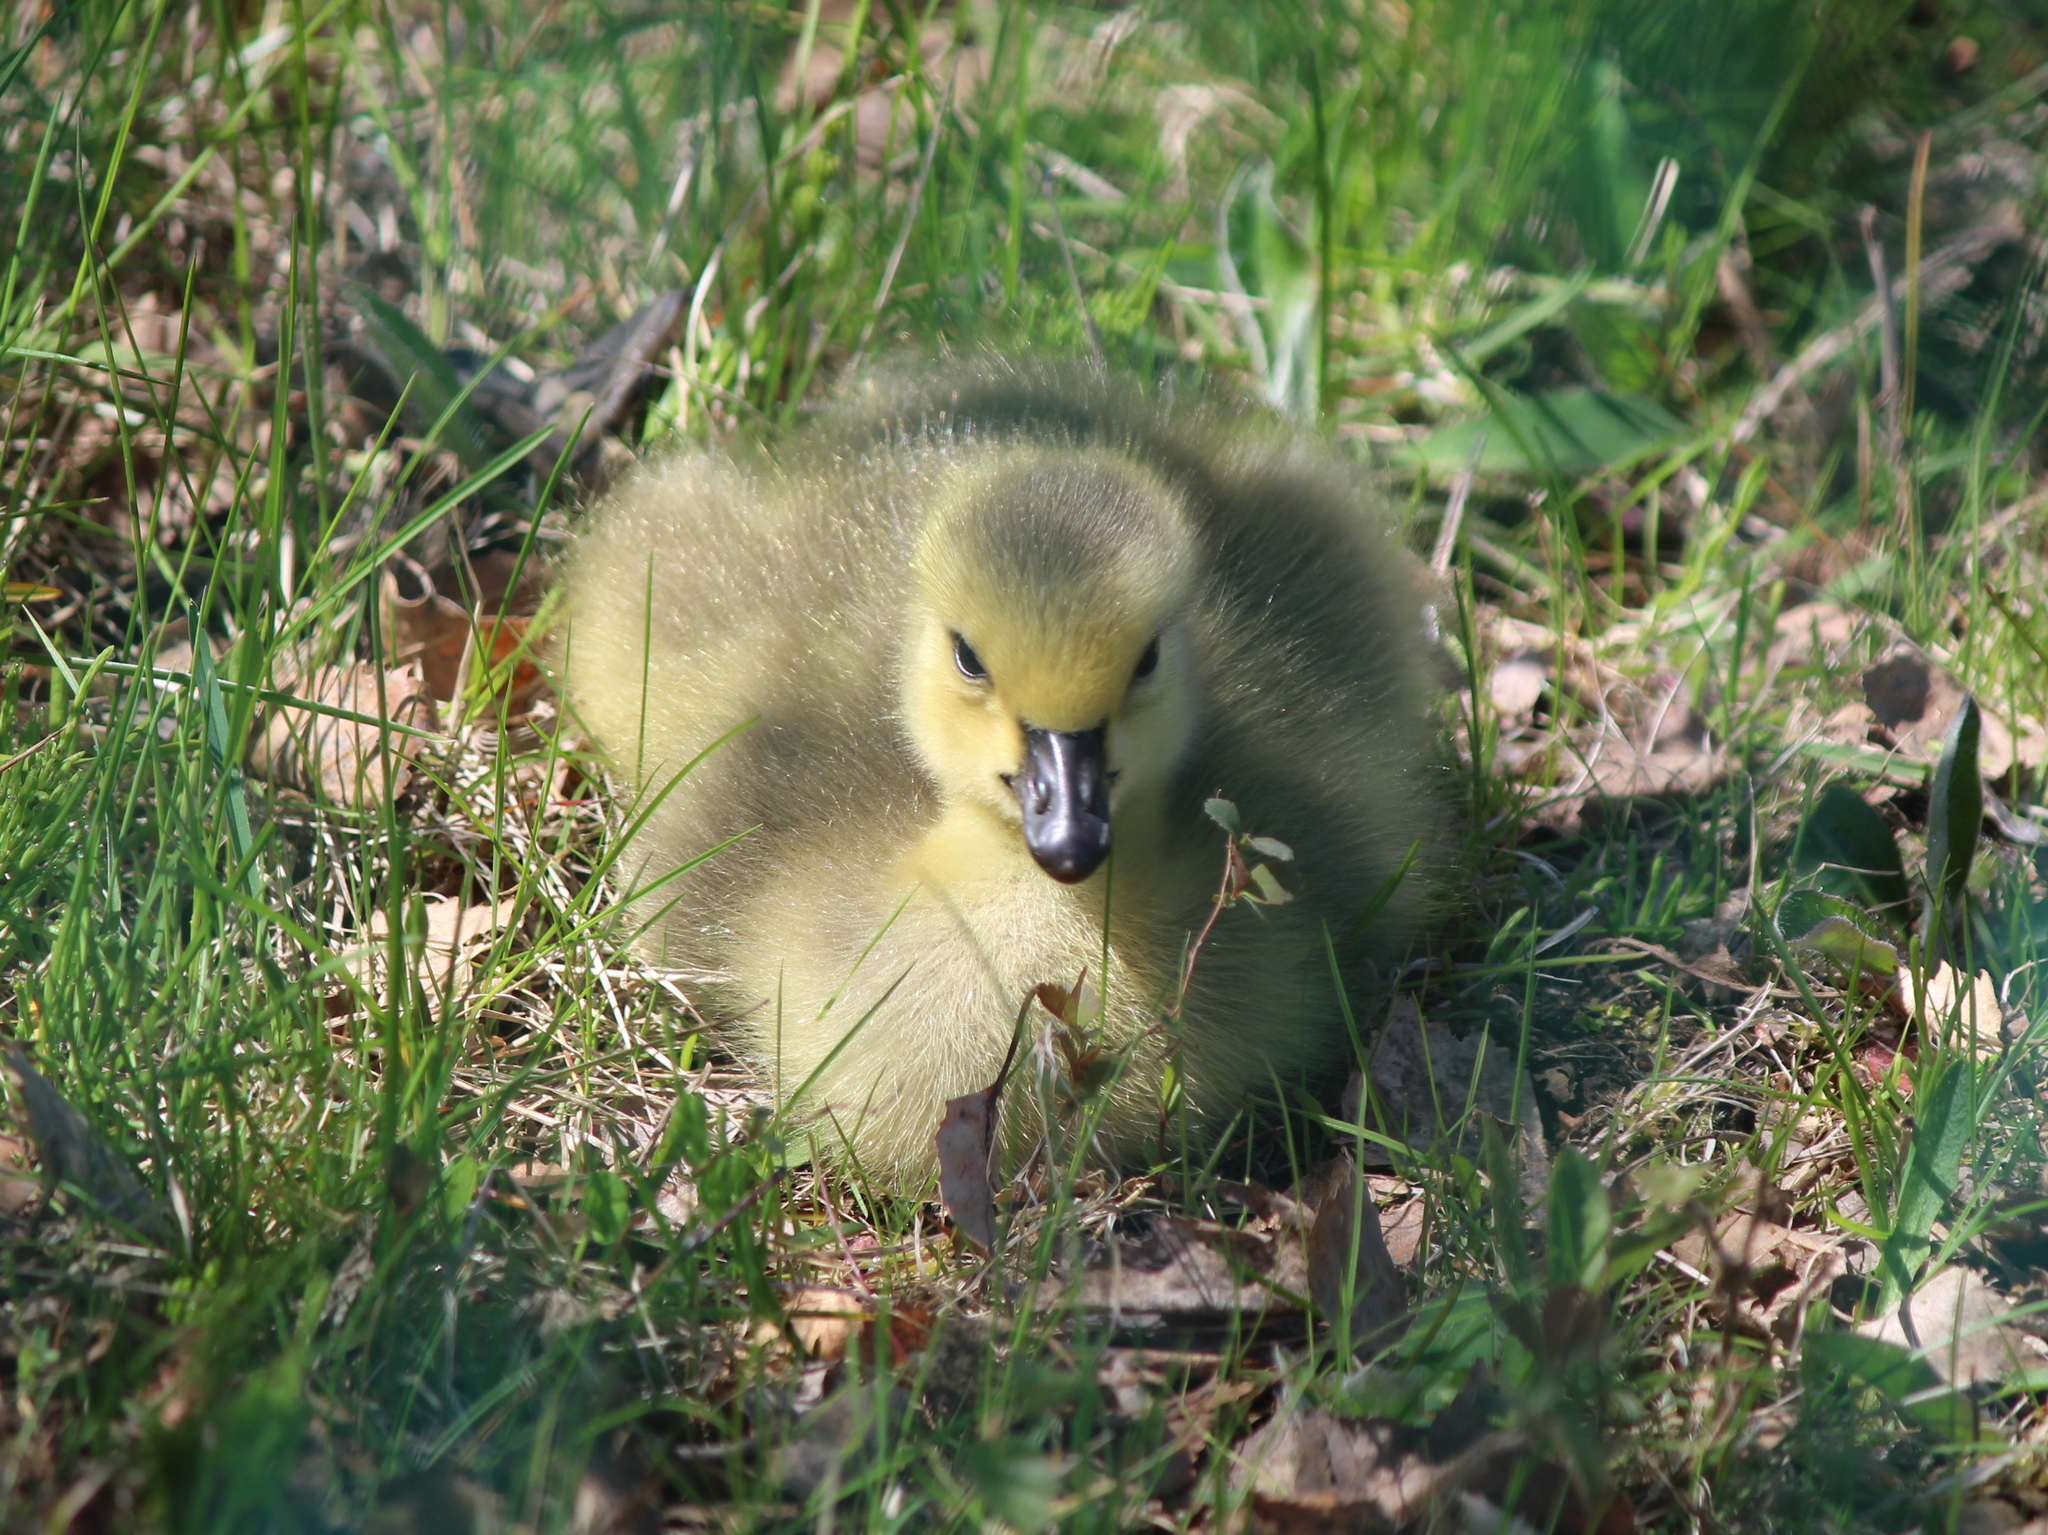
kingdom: Animalia
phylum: Chordata
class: Aves
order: Anseriformes
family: Anatidae
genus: Branta
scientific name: Branta canadensis
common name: Canada goose
